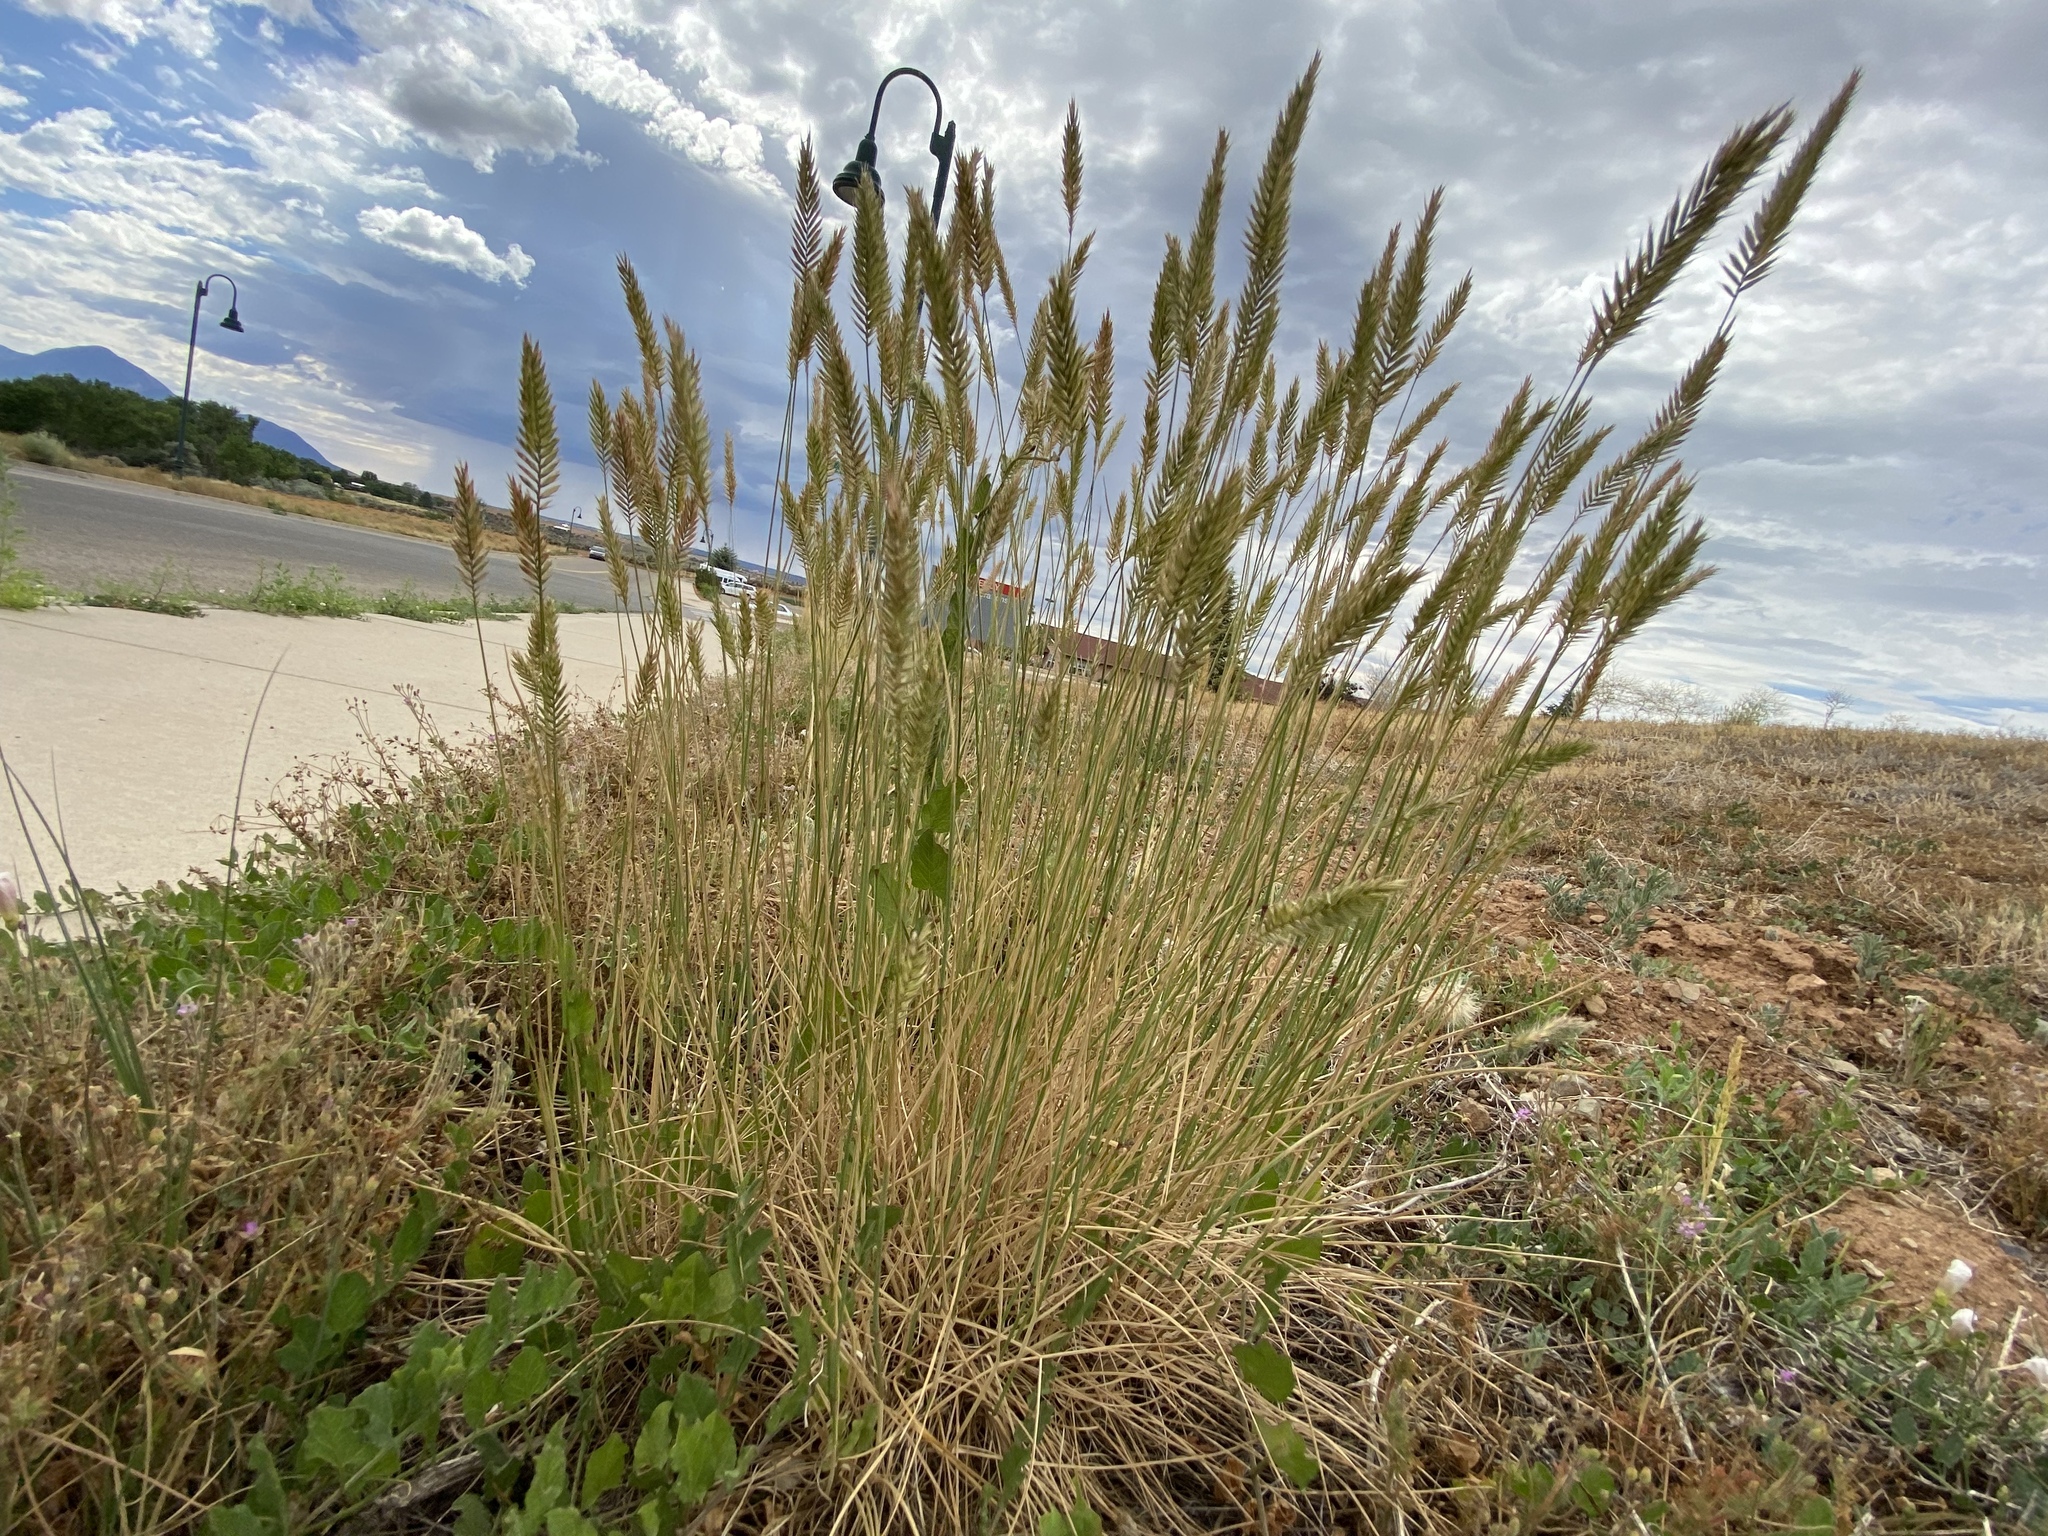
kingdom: Plantae
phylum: Tracheophyta
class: Liliopsida
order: Poales
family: Poaceae
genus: Agropyron
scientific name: Agropyron cristatum
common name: Crested wheatgrass
